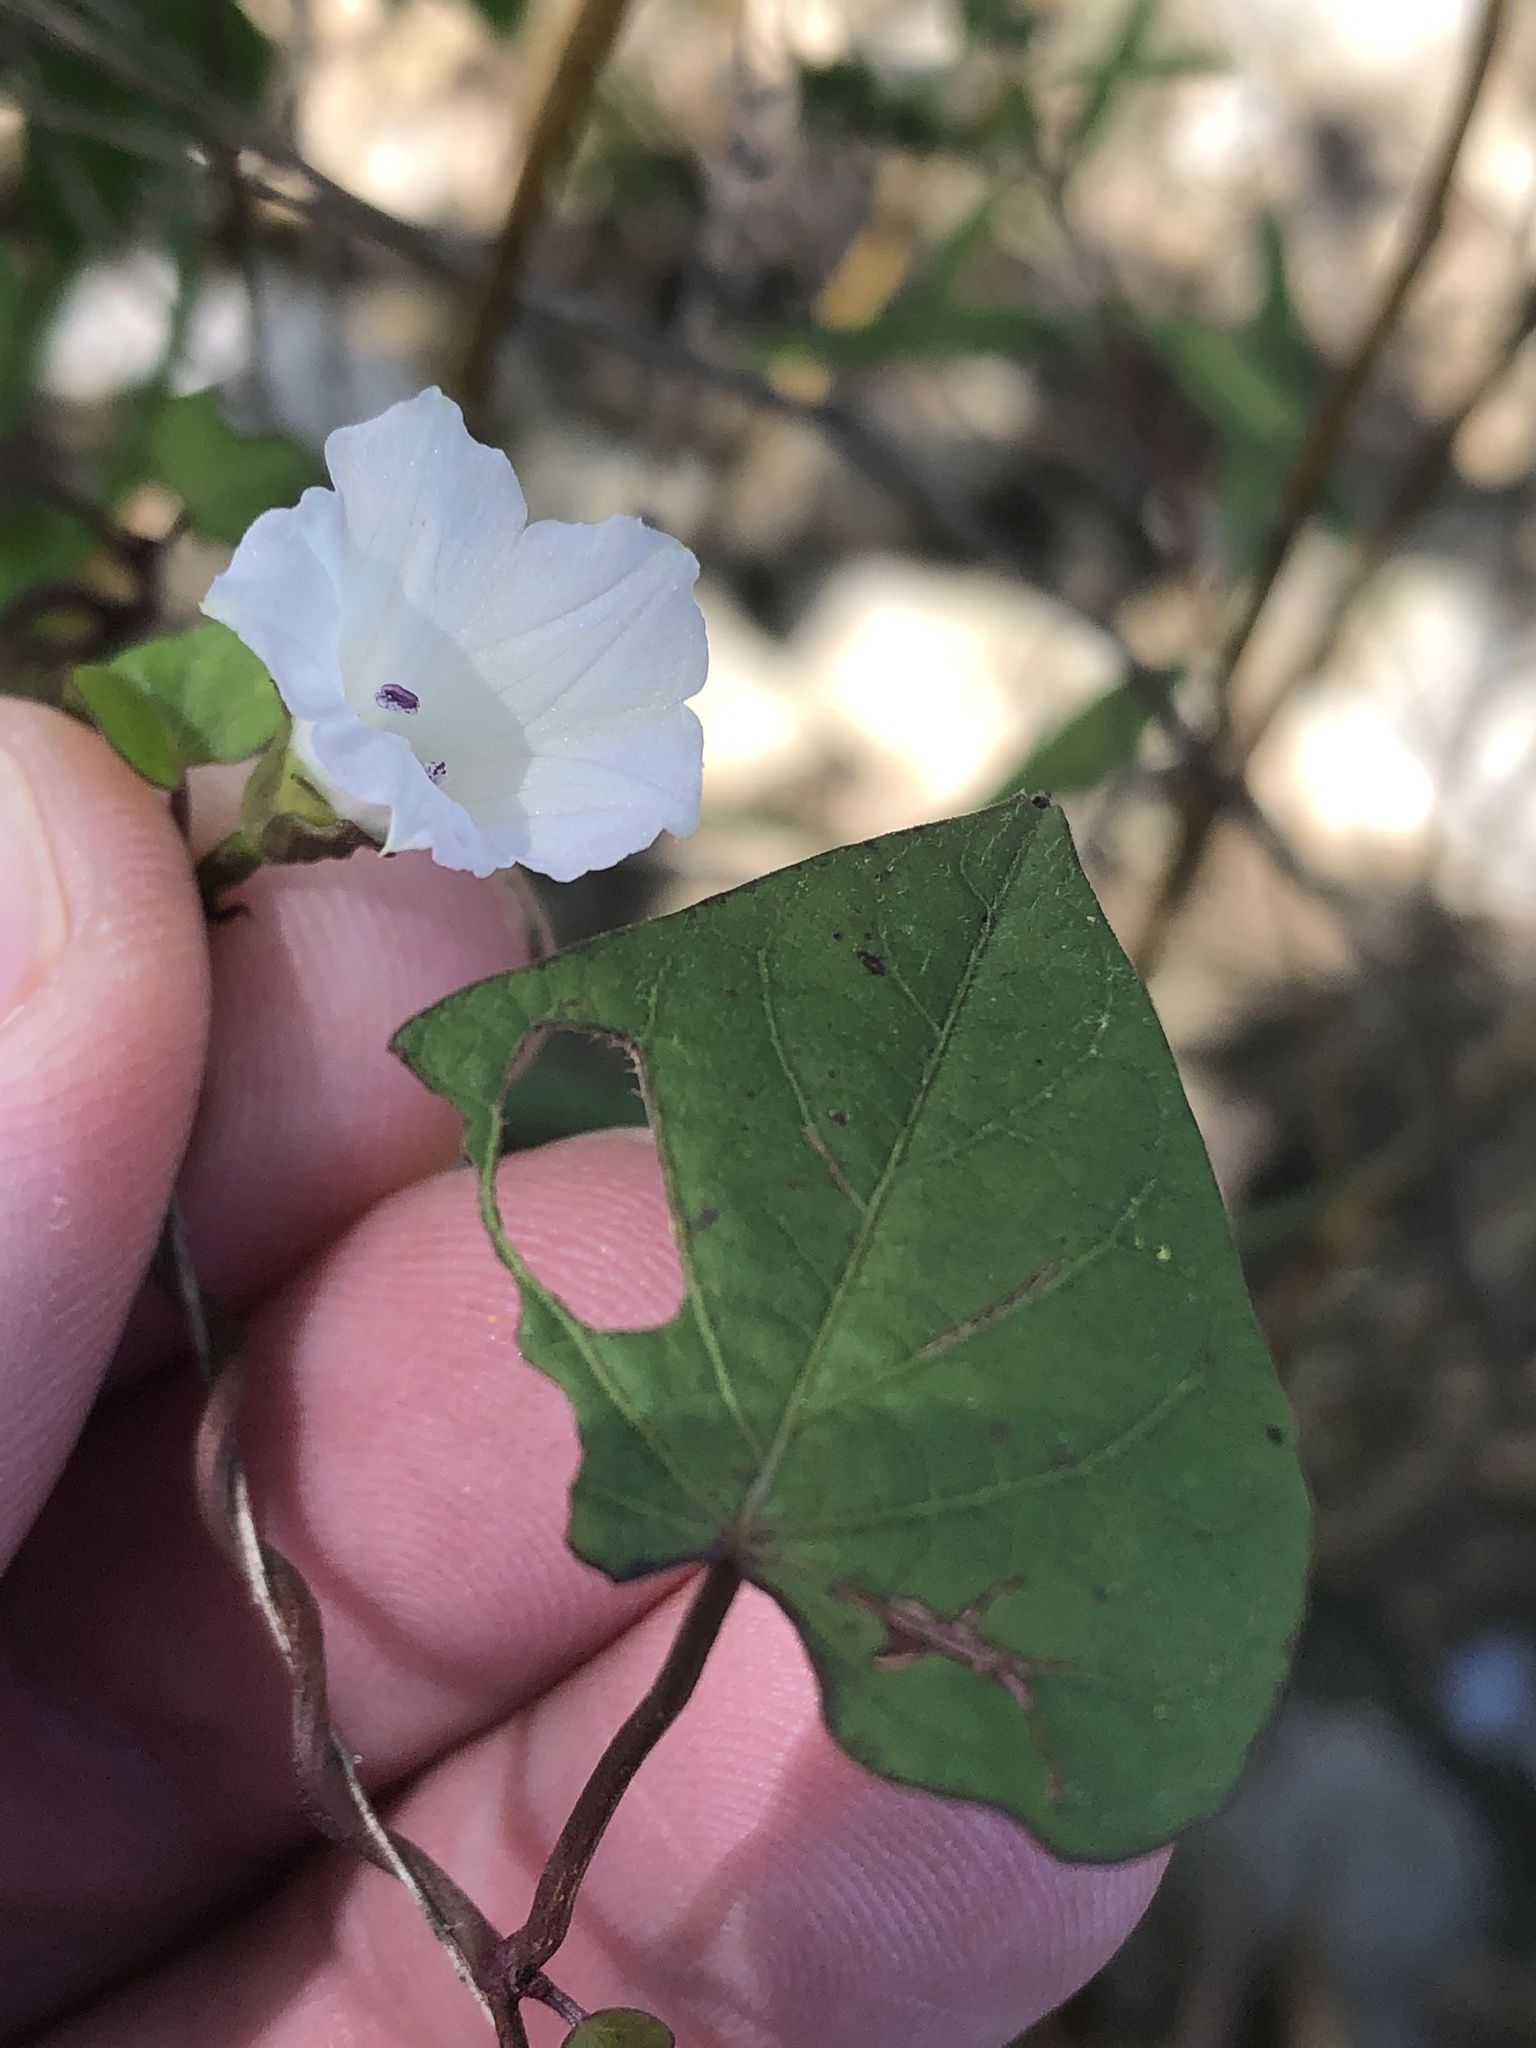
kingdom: Plantae
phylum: Tracheophyta
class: Magnoliopsida
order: Solanales
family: Convolvulaceae
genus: Ipomoea
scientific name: Ipomoea lacunosa
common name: White morning-glory
